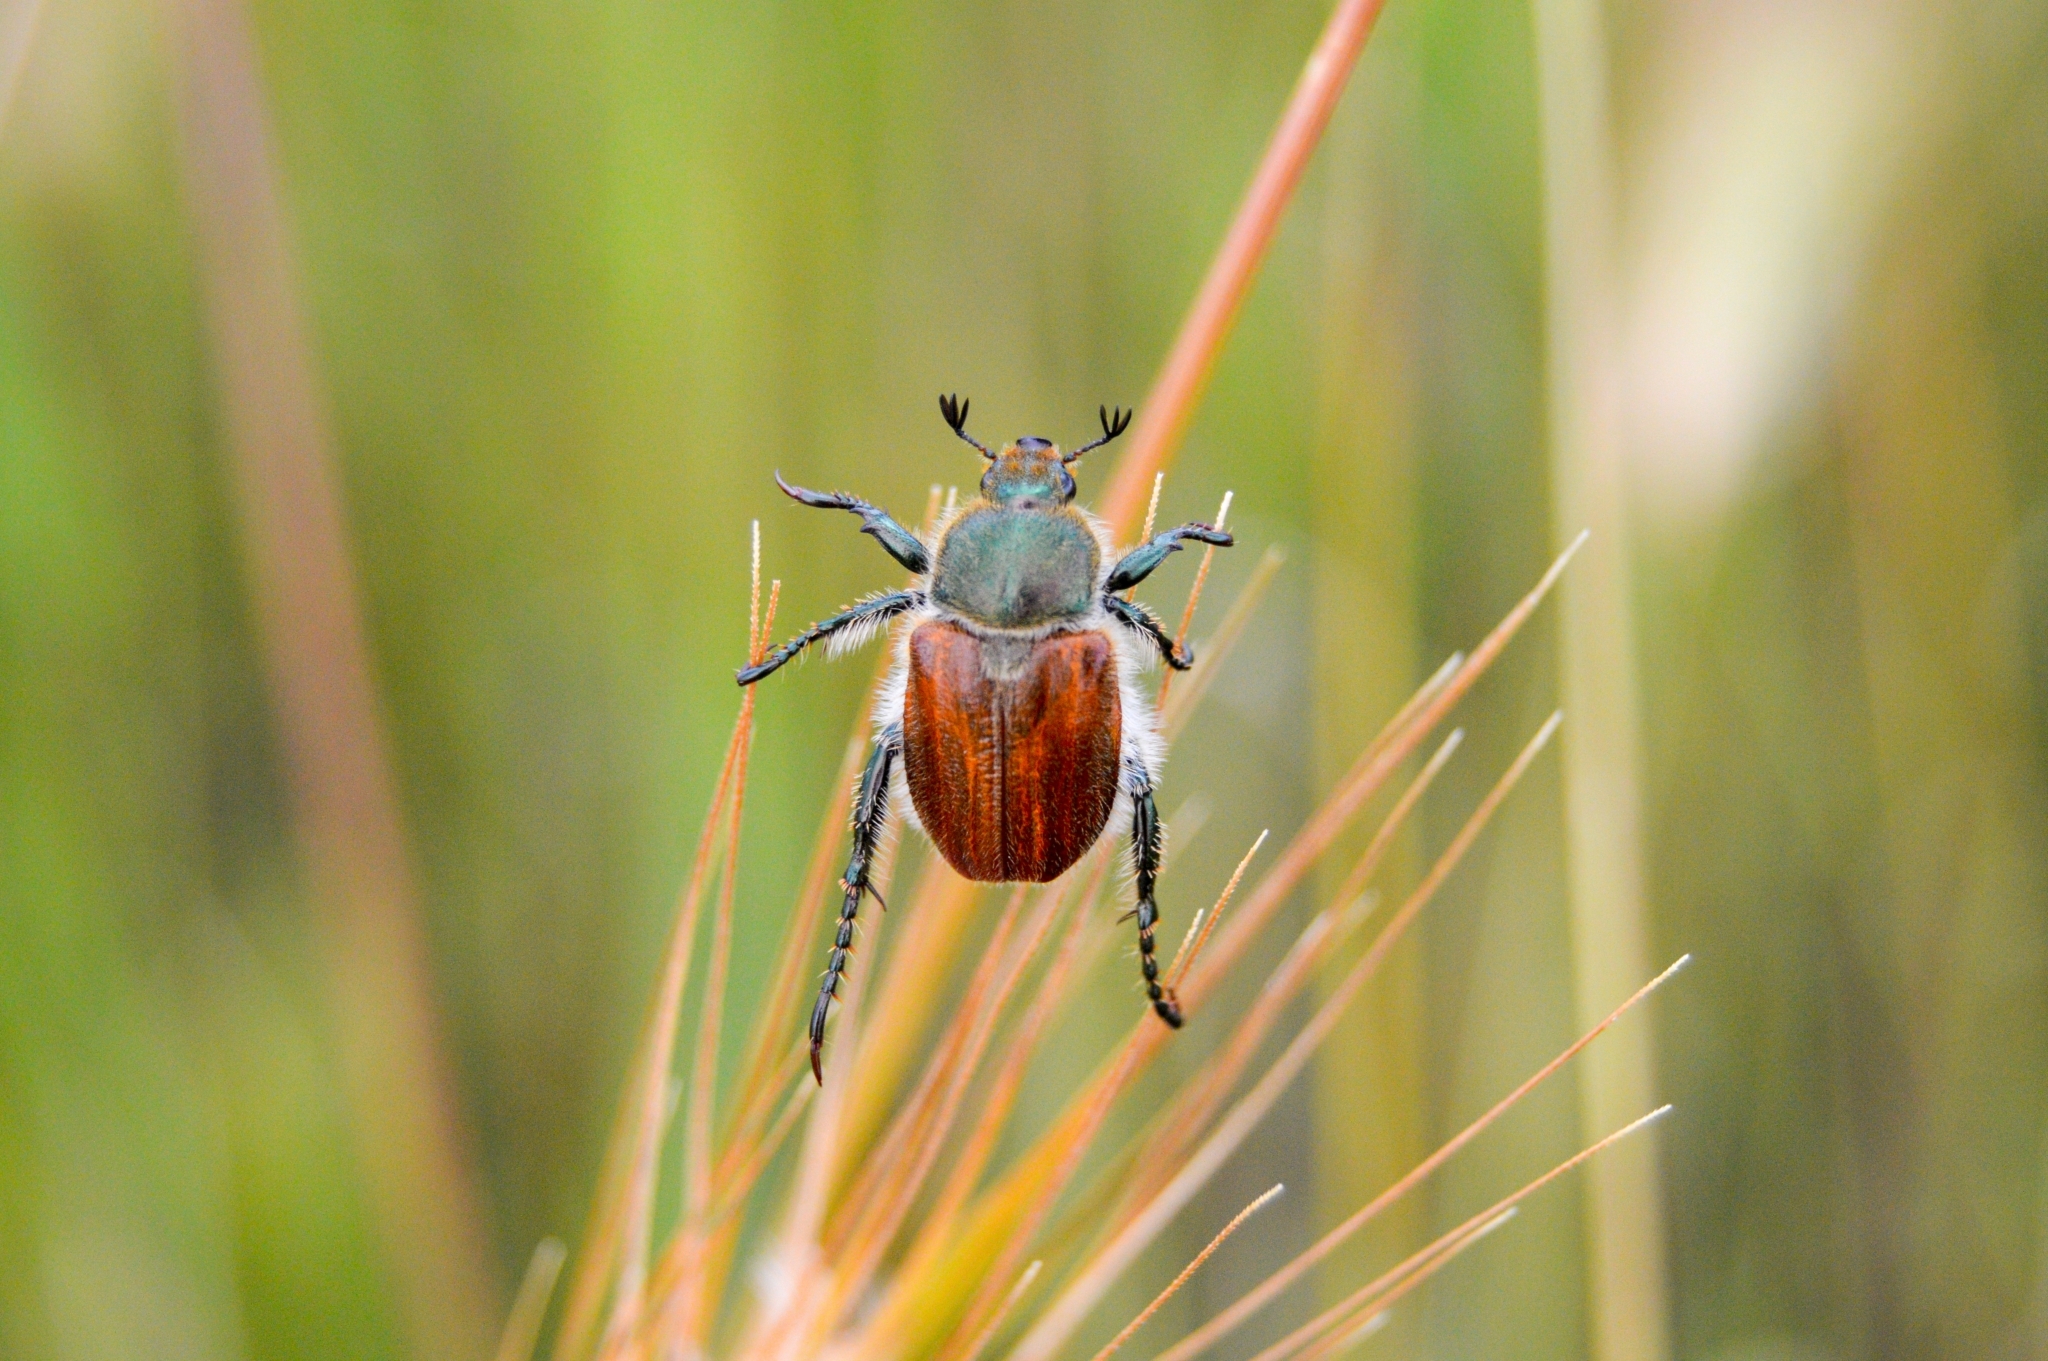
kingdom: Animalia
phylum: Arthropoda
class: Insecta
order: Coleoptera
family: Scarabaeidae
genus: Chaetopteroplia
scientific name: Chaetopteroplia segetum
